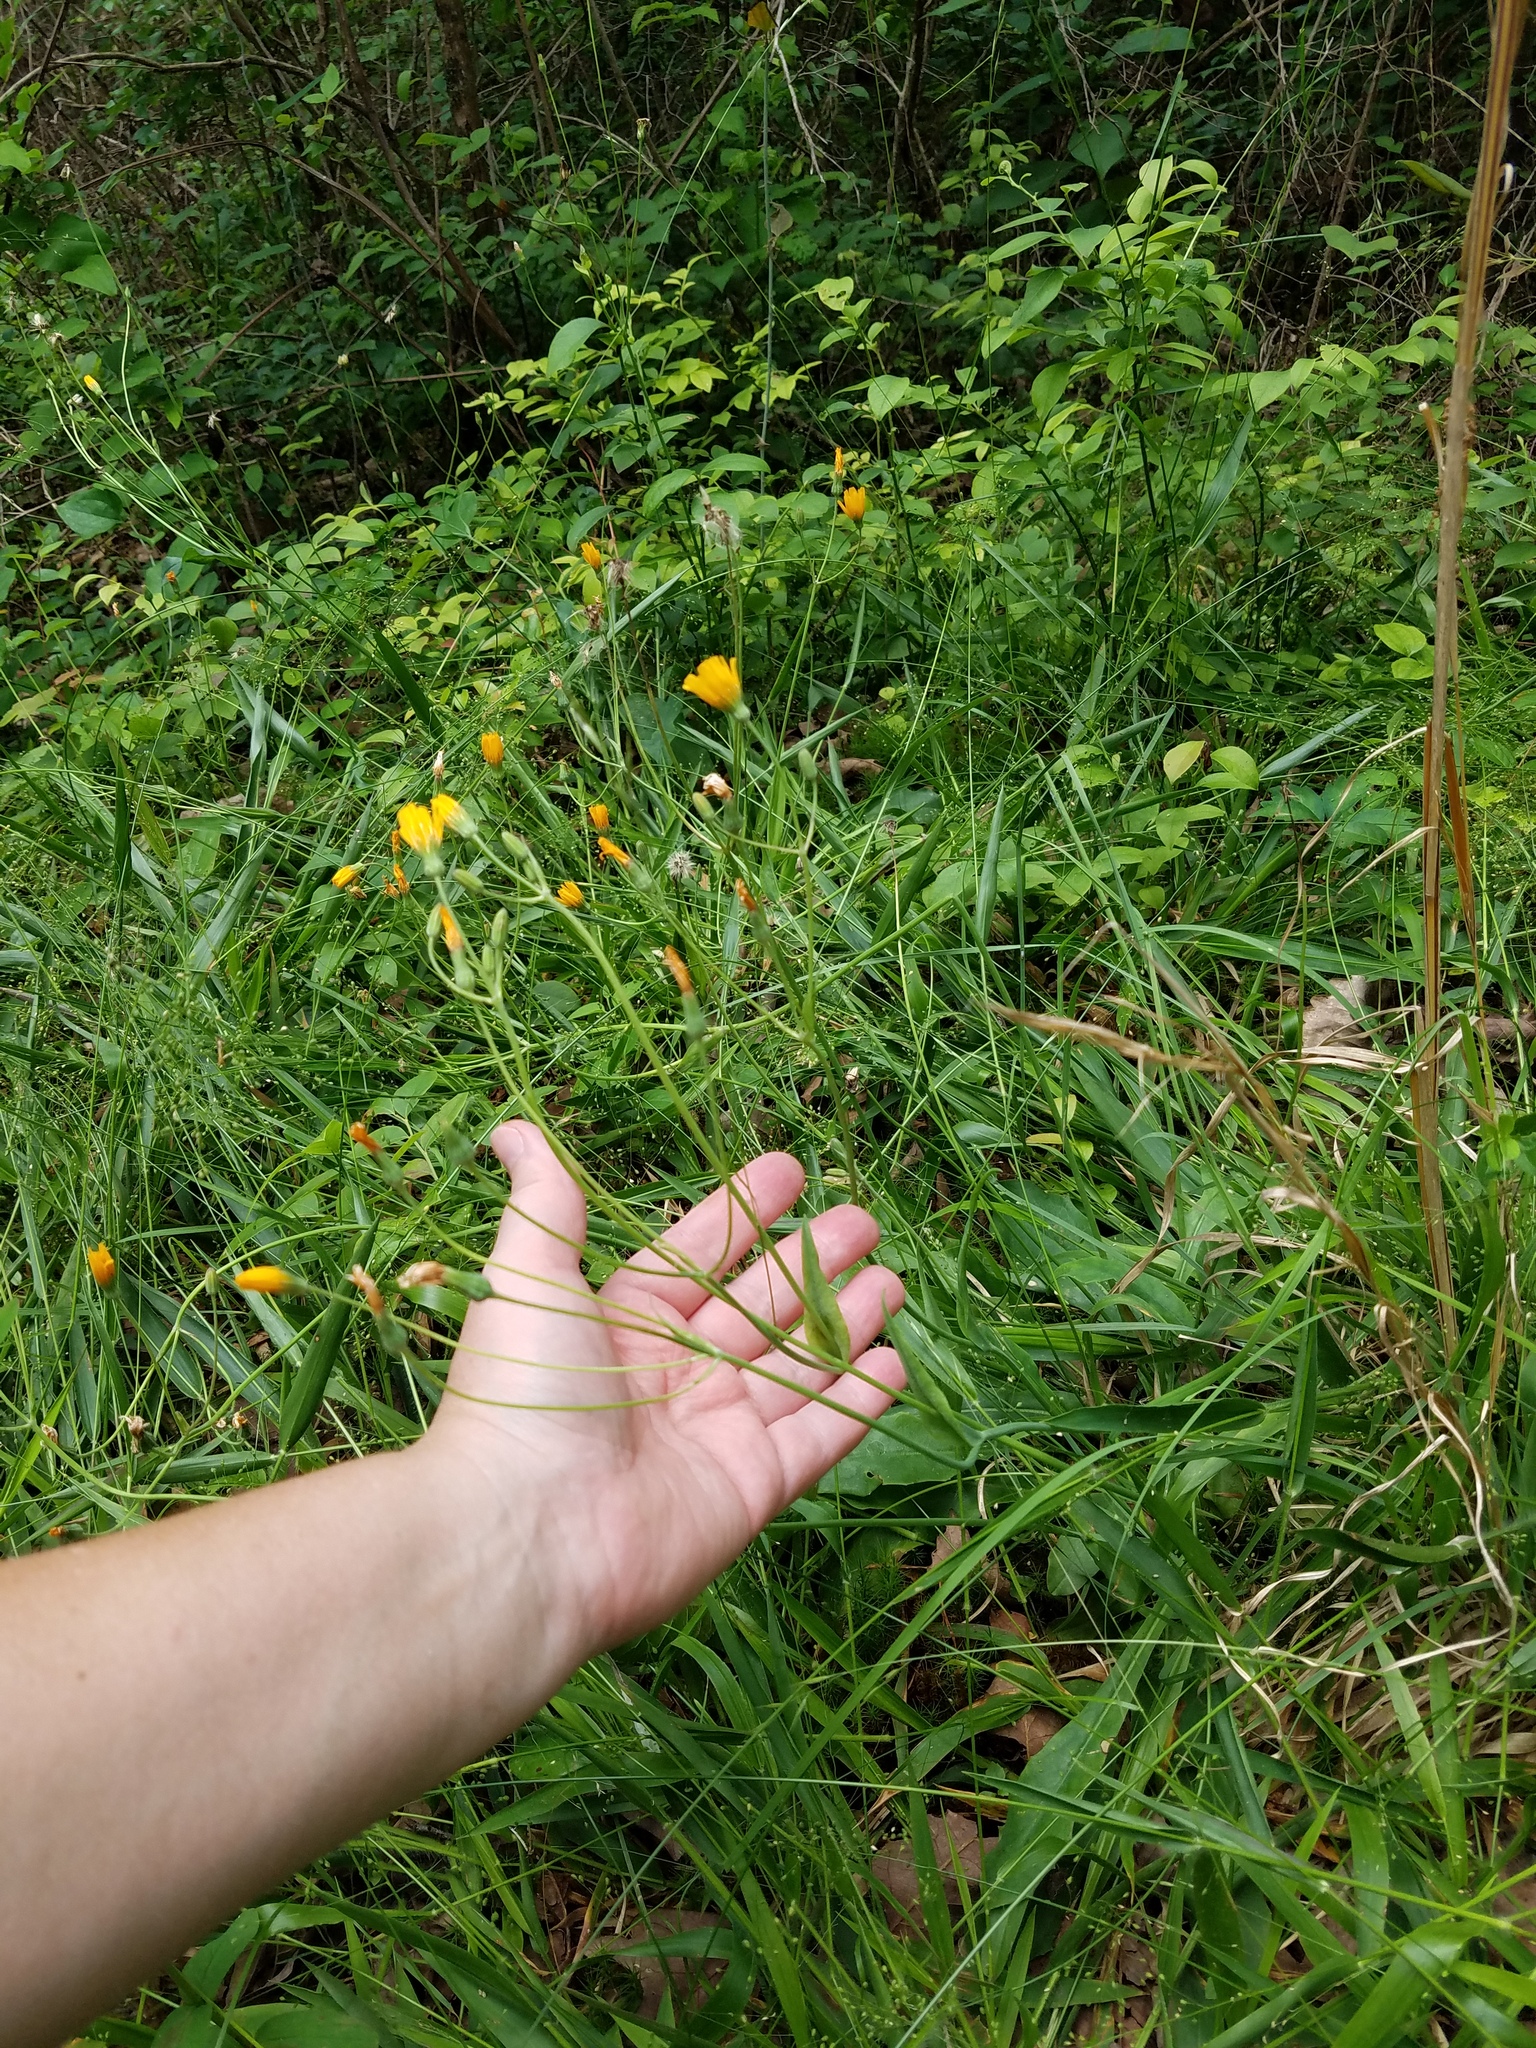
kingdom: Plantae
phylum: Tracheophyta
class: Magnoliopsida
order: Asterales
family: Asteraceae
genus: Krigia
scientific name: Krigia biflora
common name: Orange dwarf-dandelion
